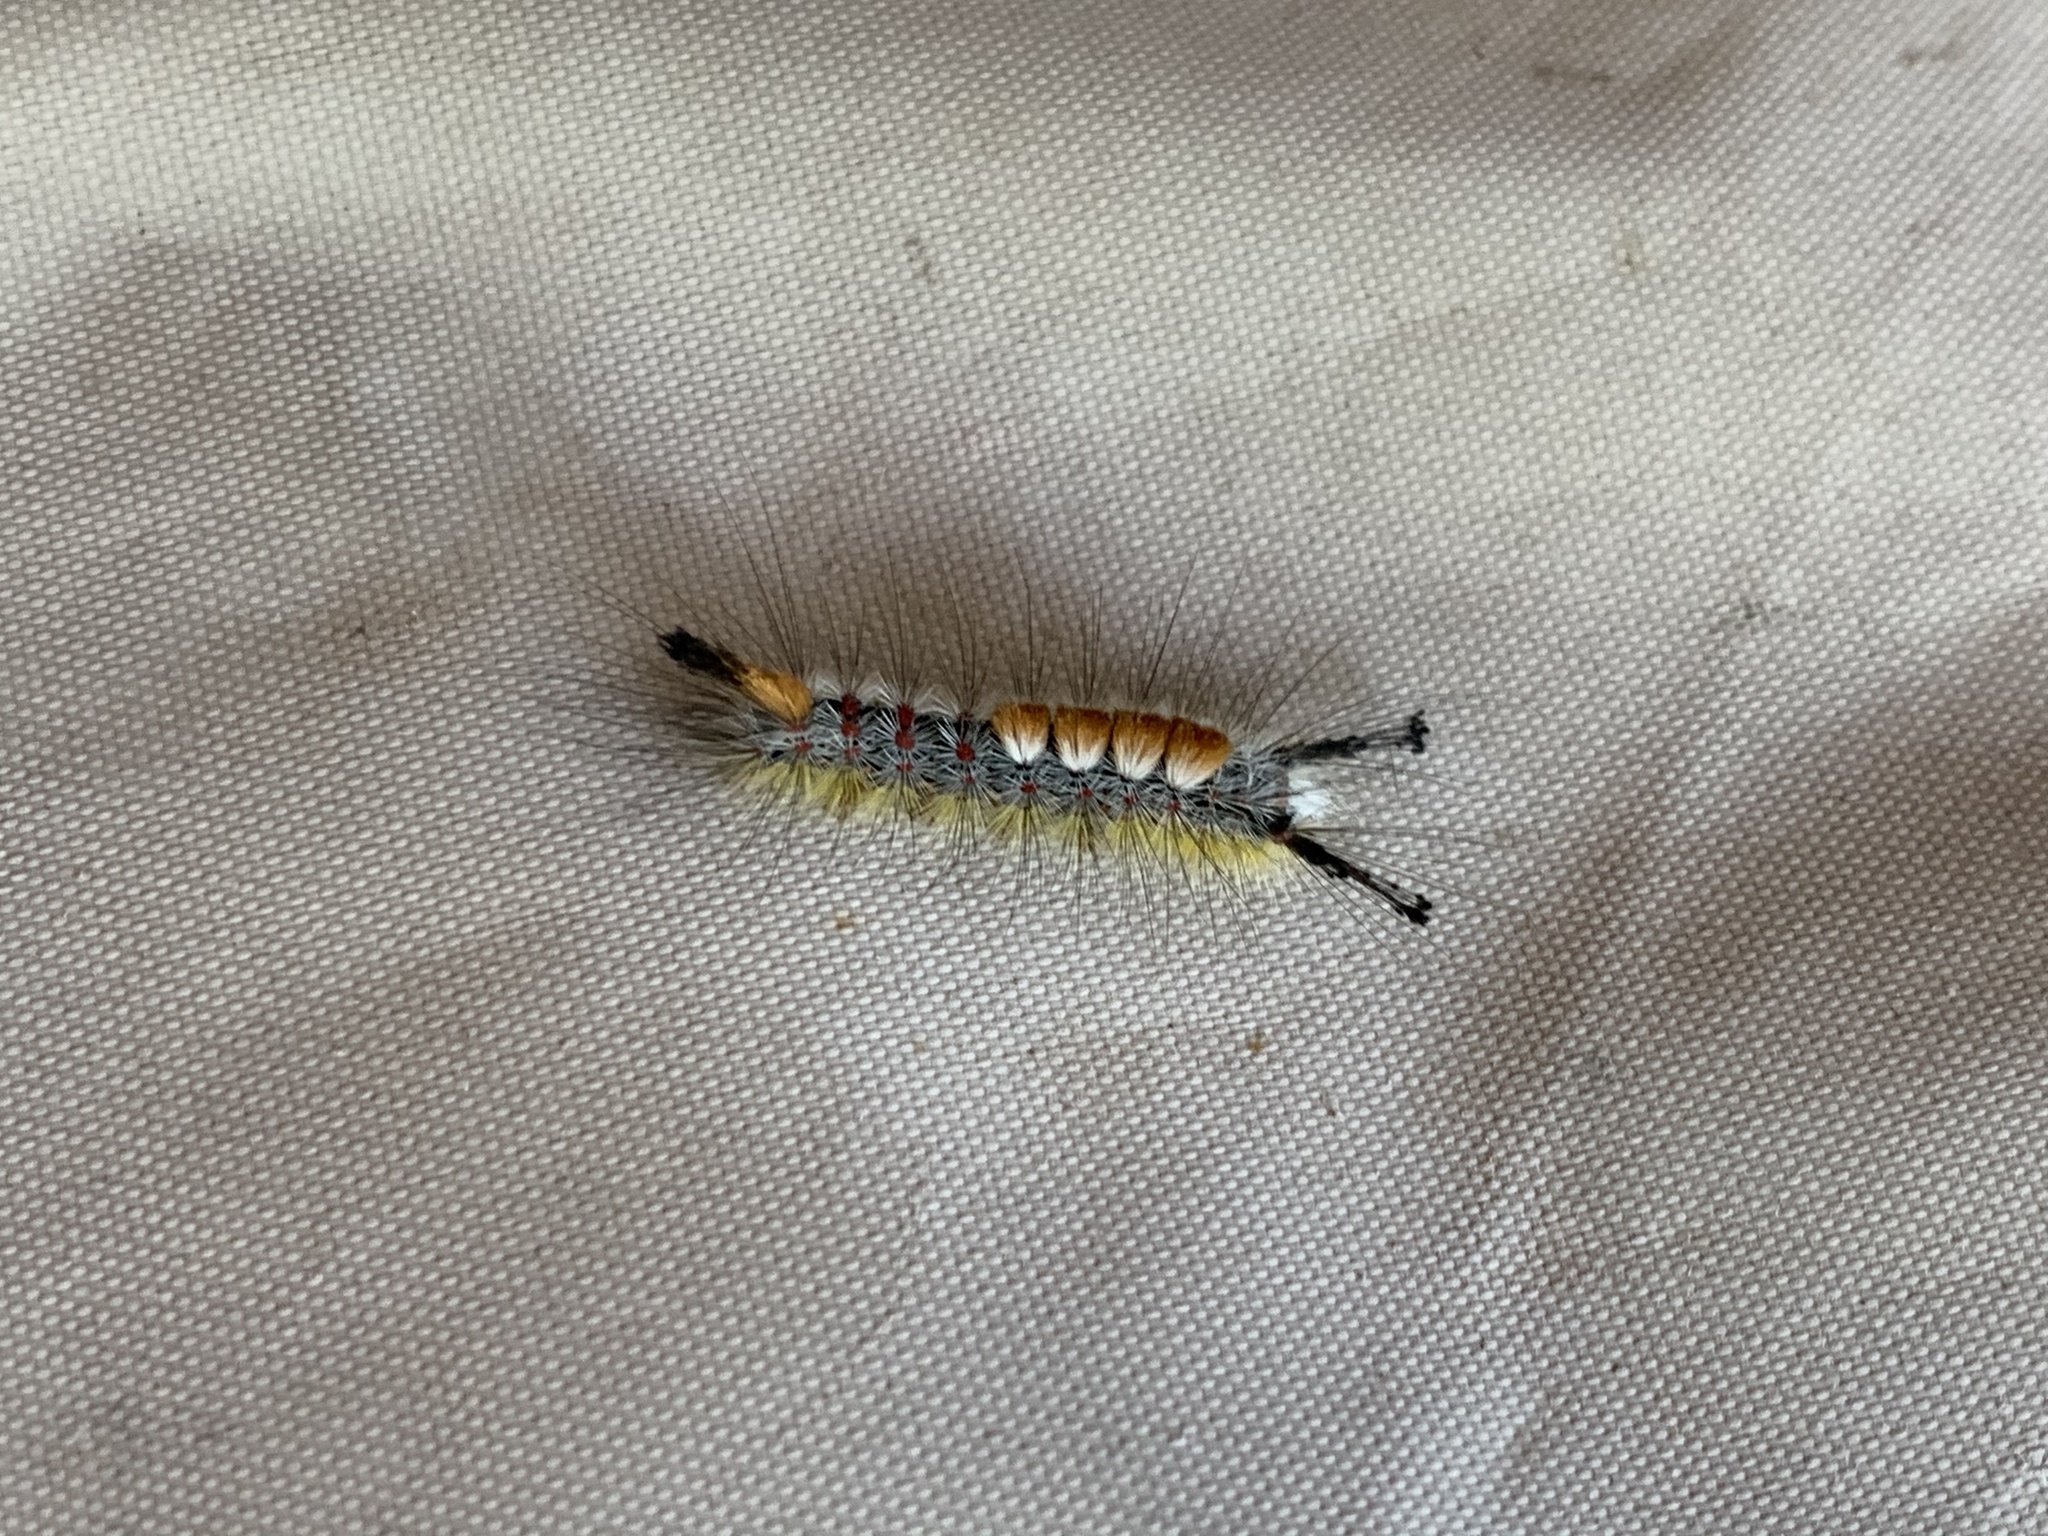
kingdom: Animalia
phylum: Arthropoda
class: Insecta
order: Lepidoptera
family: Erebidae
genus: Orgyia
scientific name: Orgyia pseudotsugata
